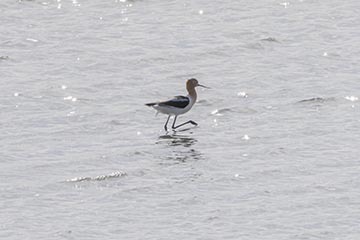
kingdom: Animalia
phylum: Chordata
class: Aves
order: Charadriiformes
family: Recurvirostridae
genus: Recurvirostra
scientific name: Recurvirostra americana
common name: American avocet
